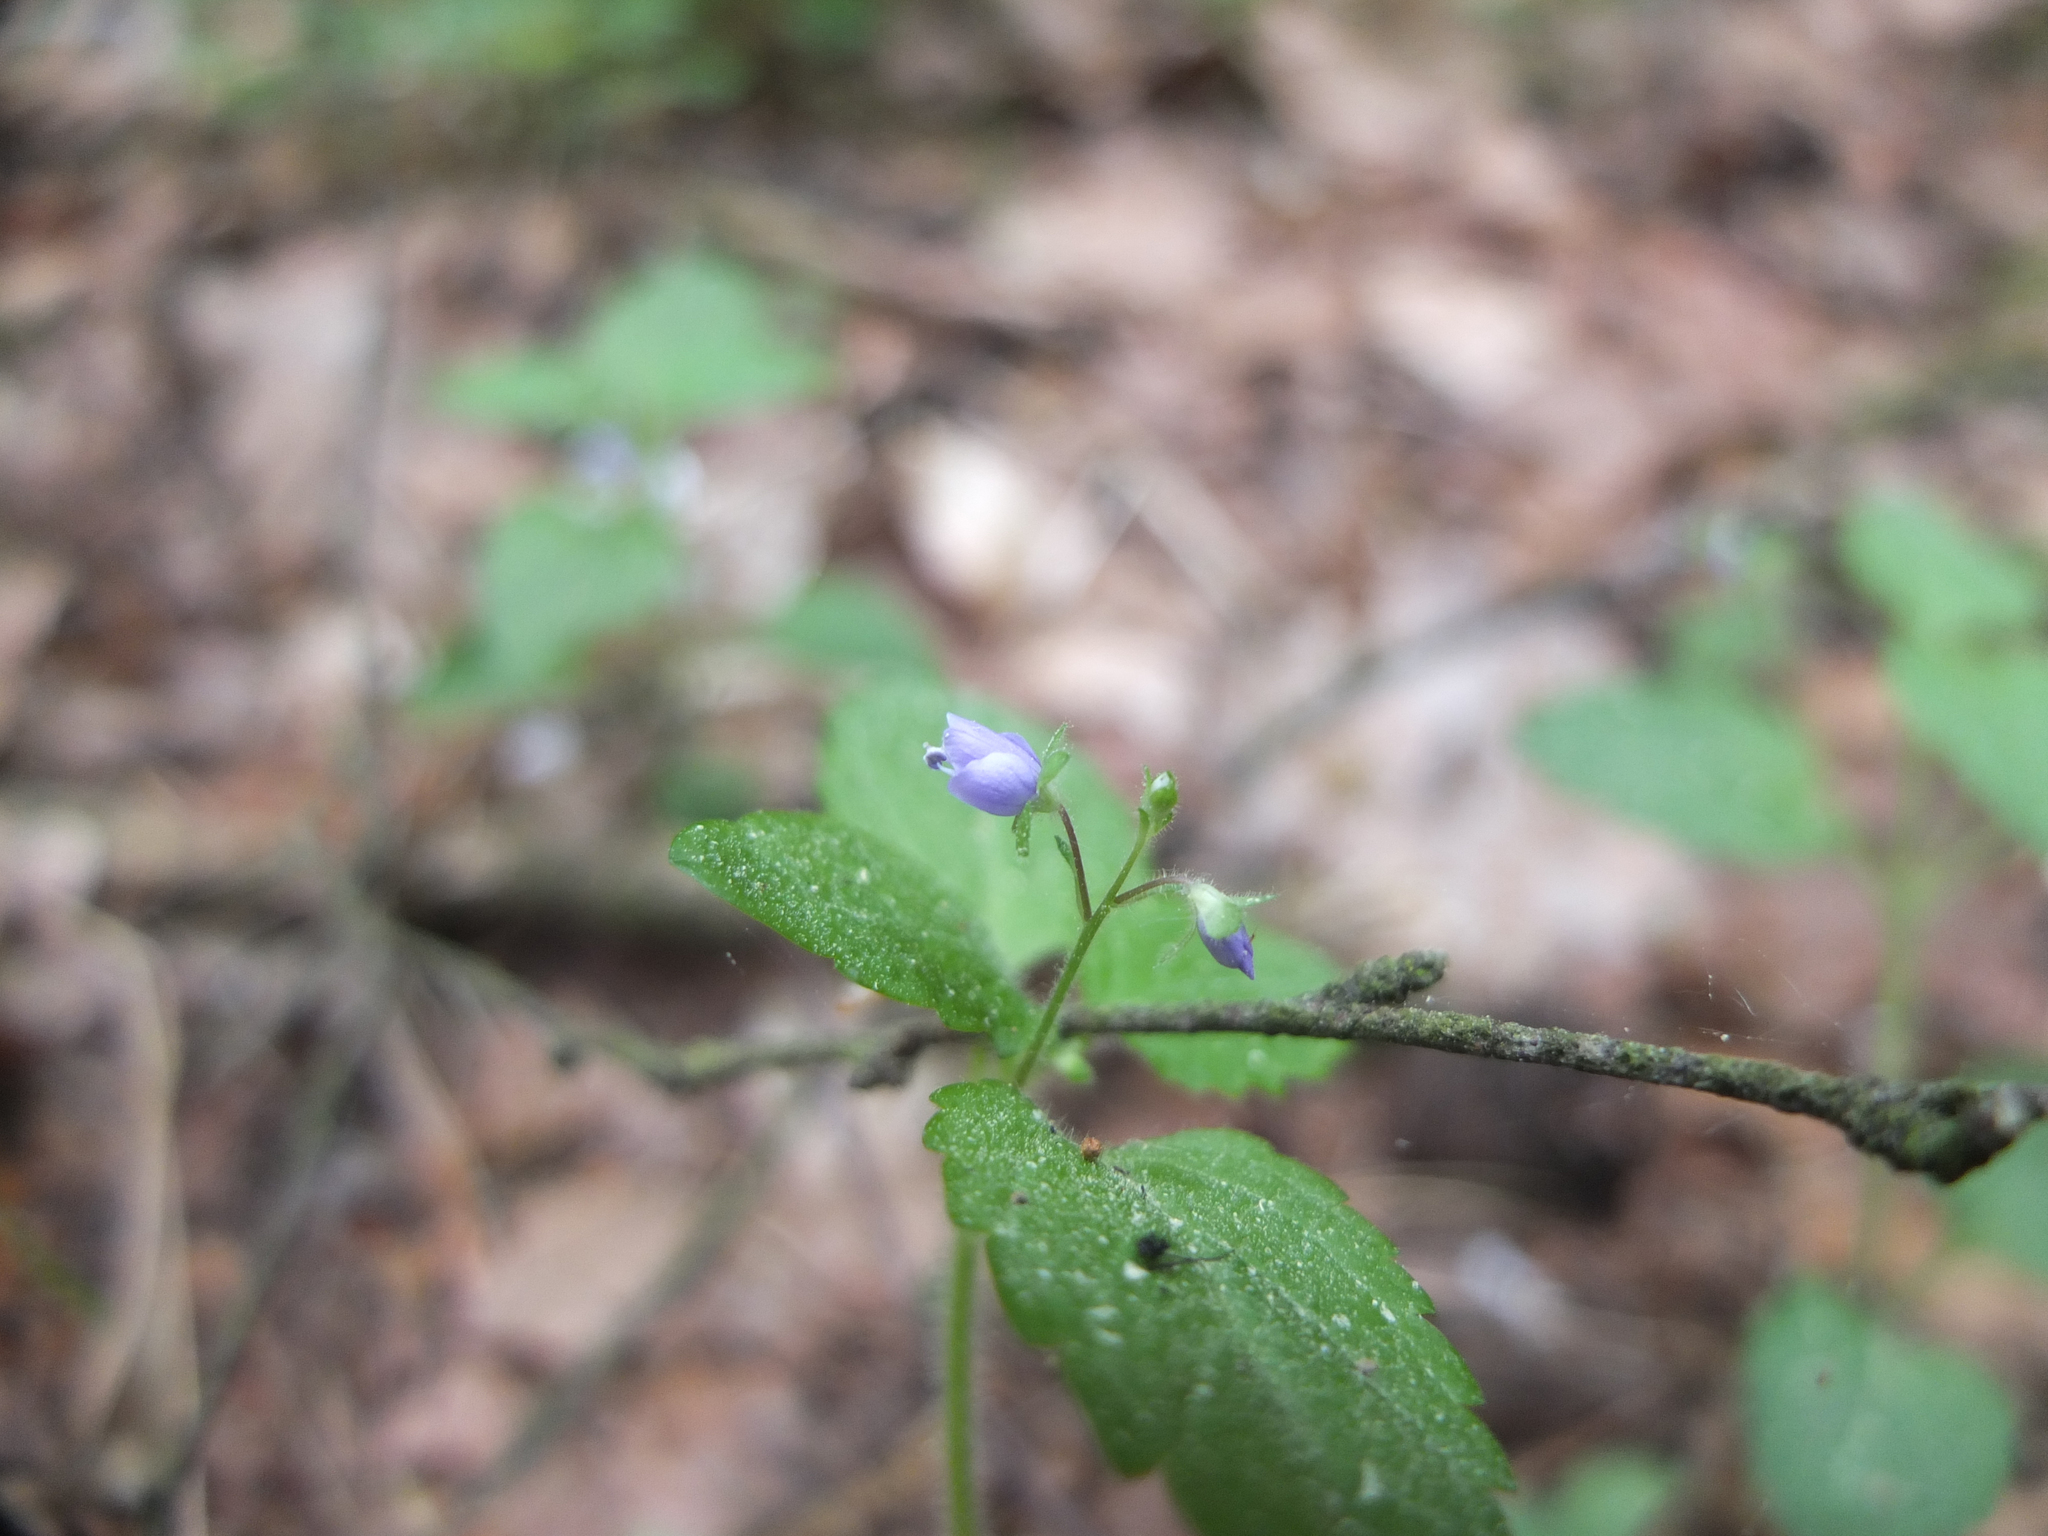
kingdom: Plantae
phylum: Tracheophyta
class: Magnoliopsida
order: Lamiales
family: Plantaginaceae
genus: Veronica
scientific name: Veronica montana
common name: Wood speedwell
